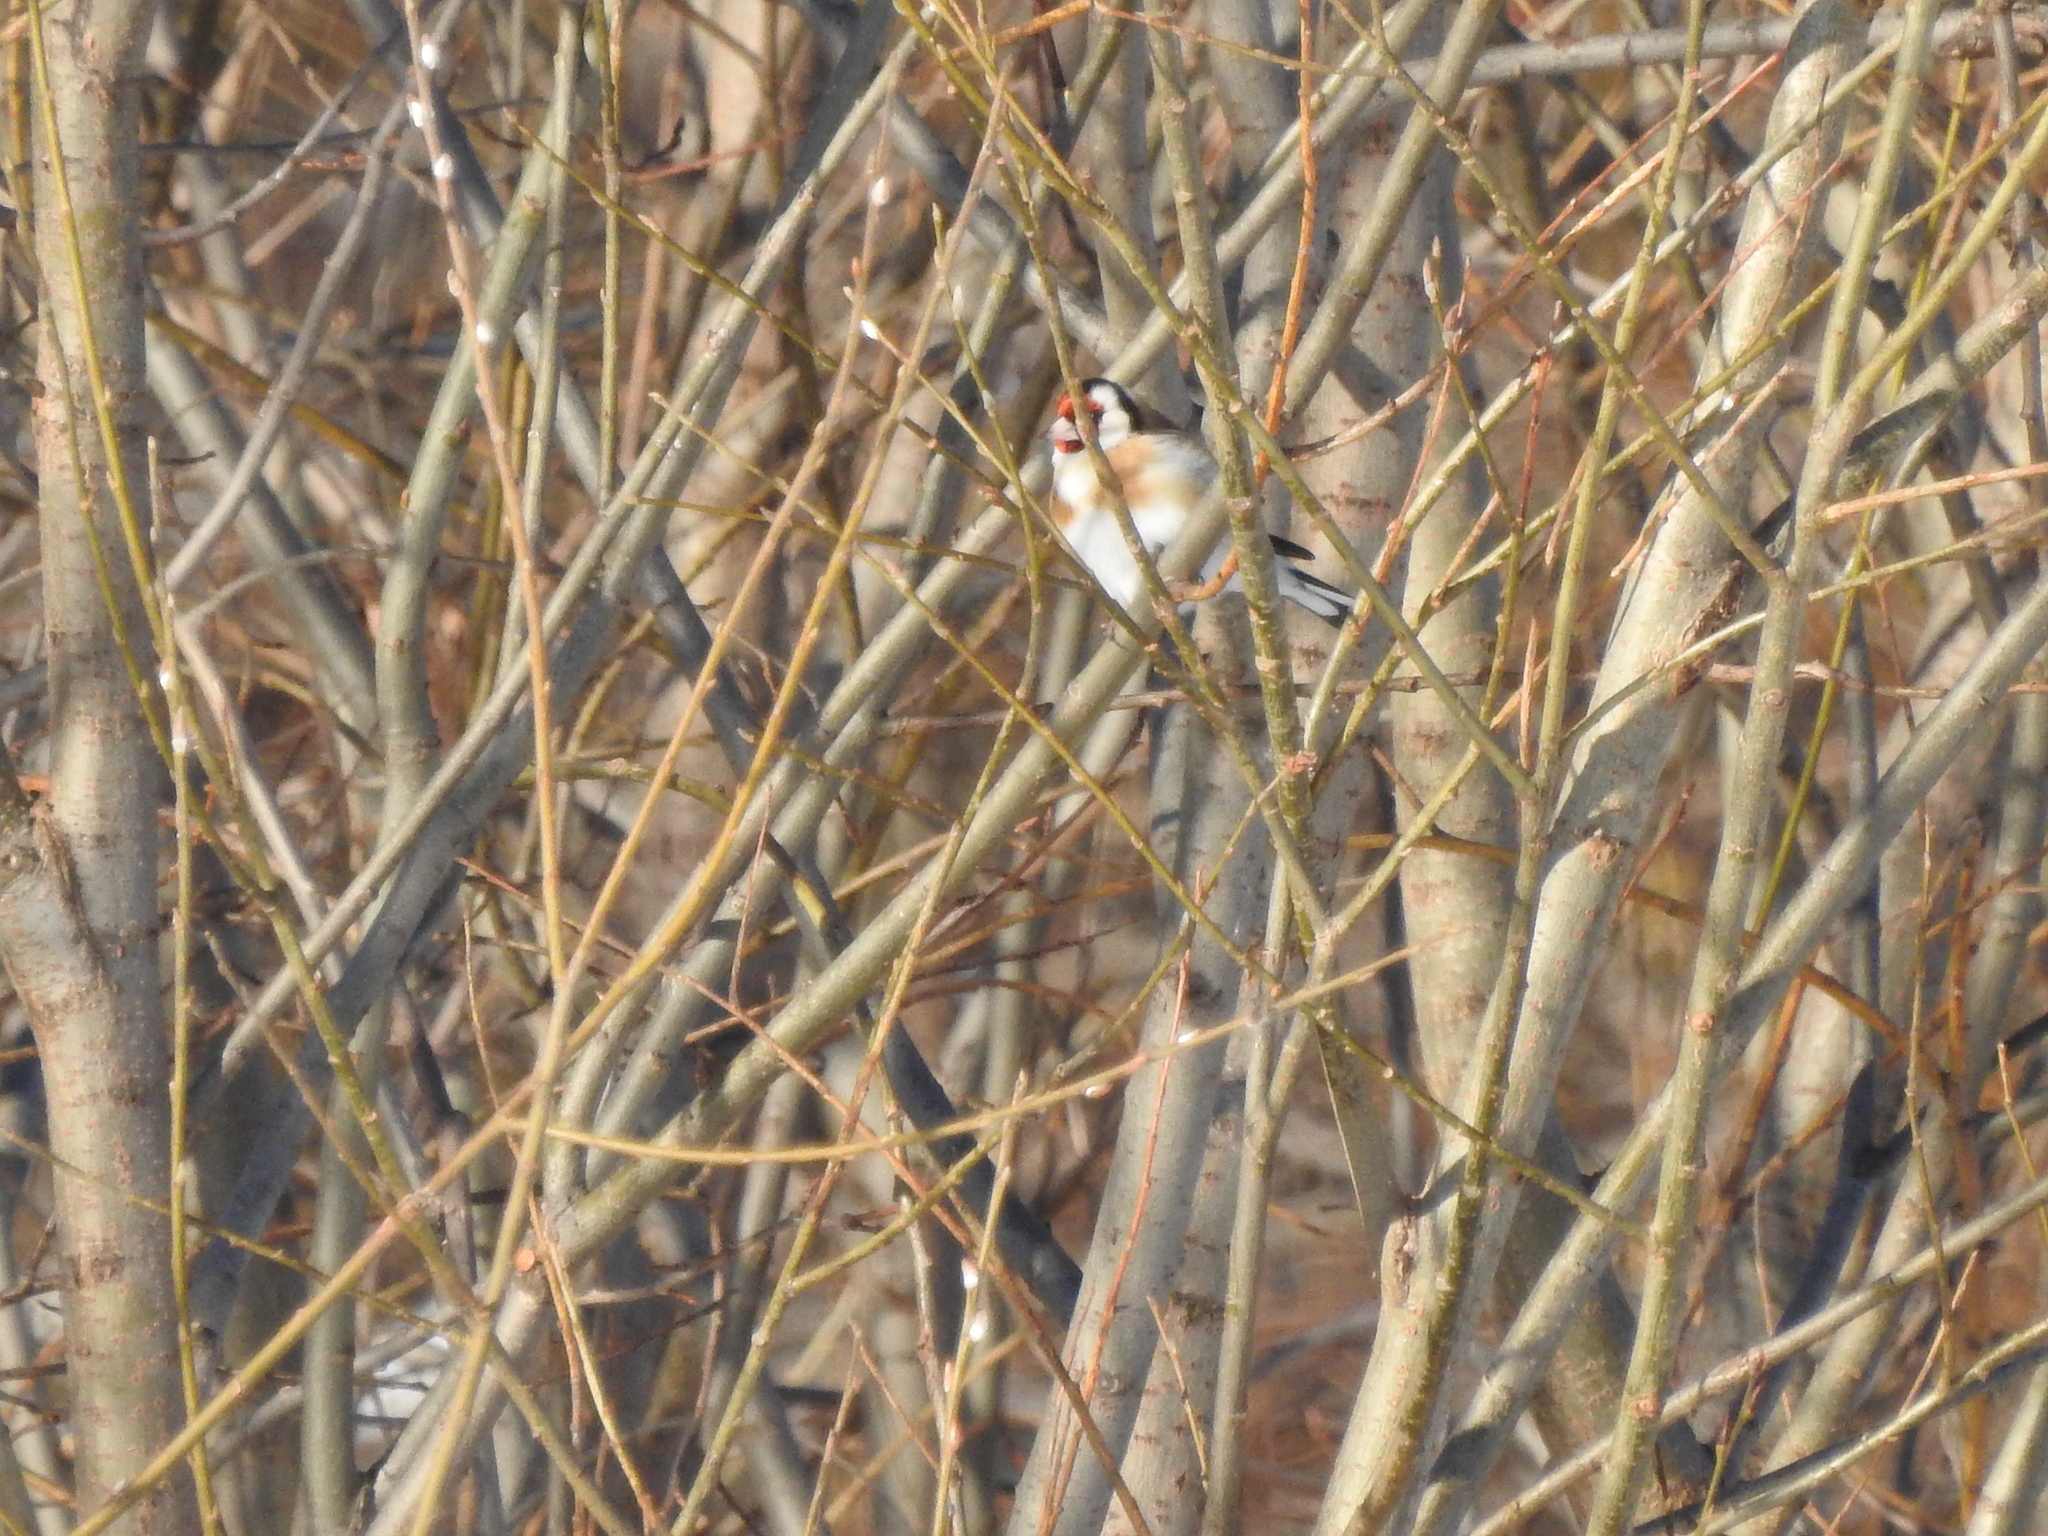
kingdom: Animalia
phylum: Chordata
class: Aves
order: Passeriformes
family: Fringillidae
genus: Carduelis
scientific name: Carduelis carduelis
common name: European goldfinch
